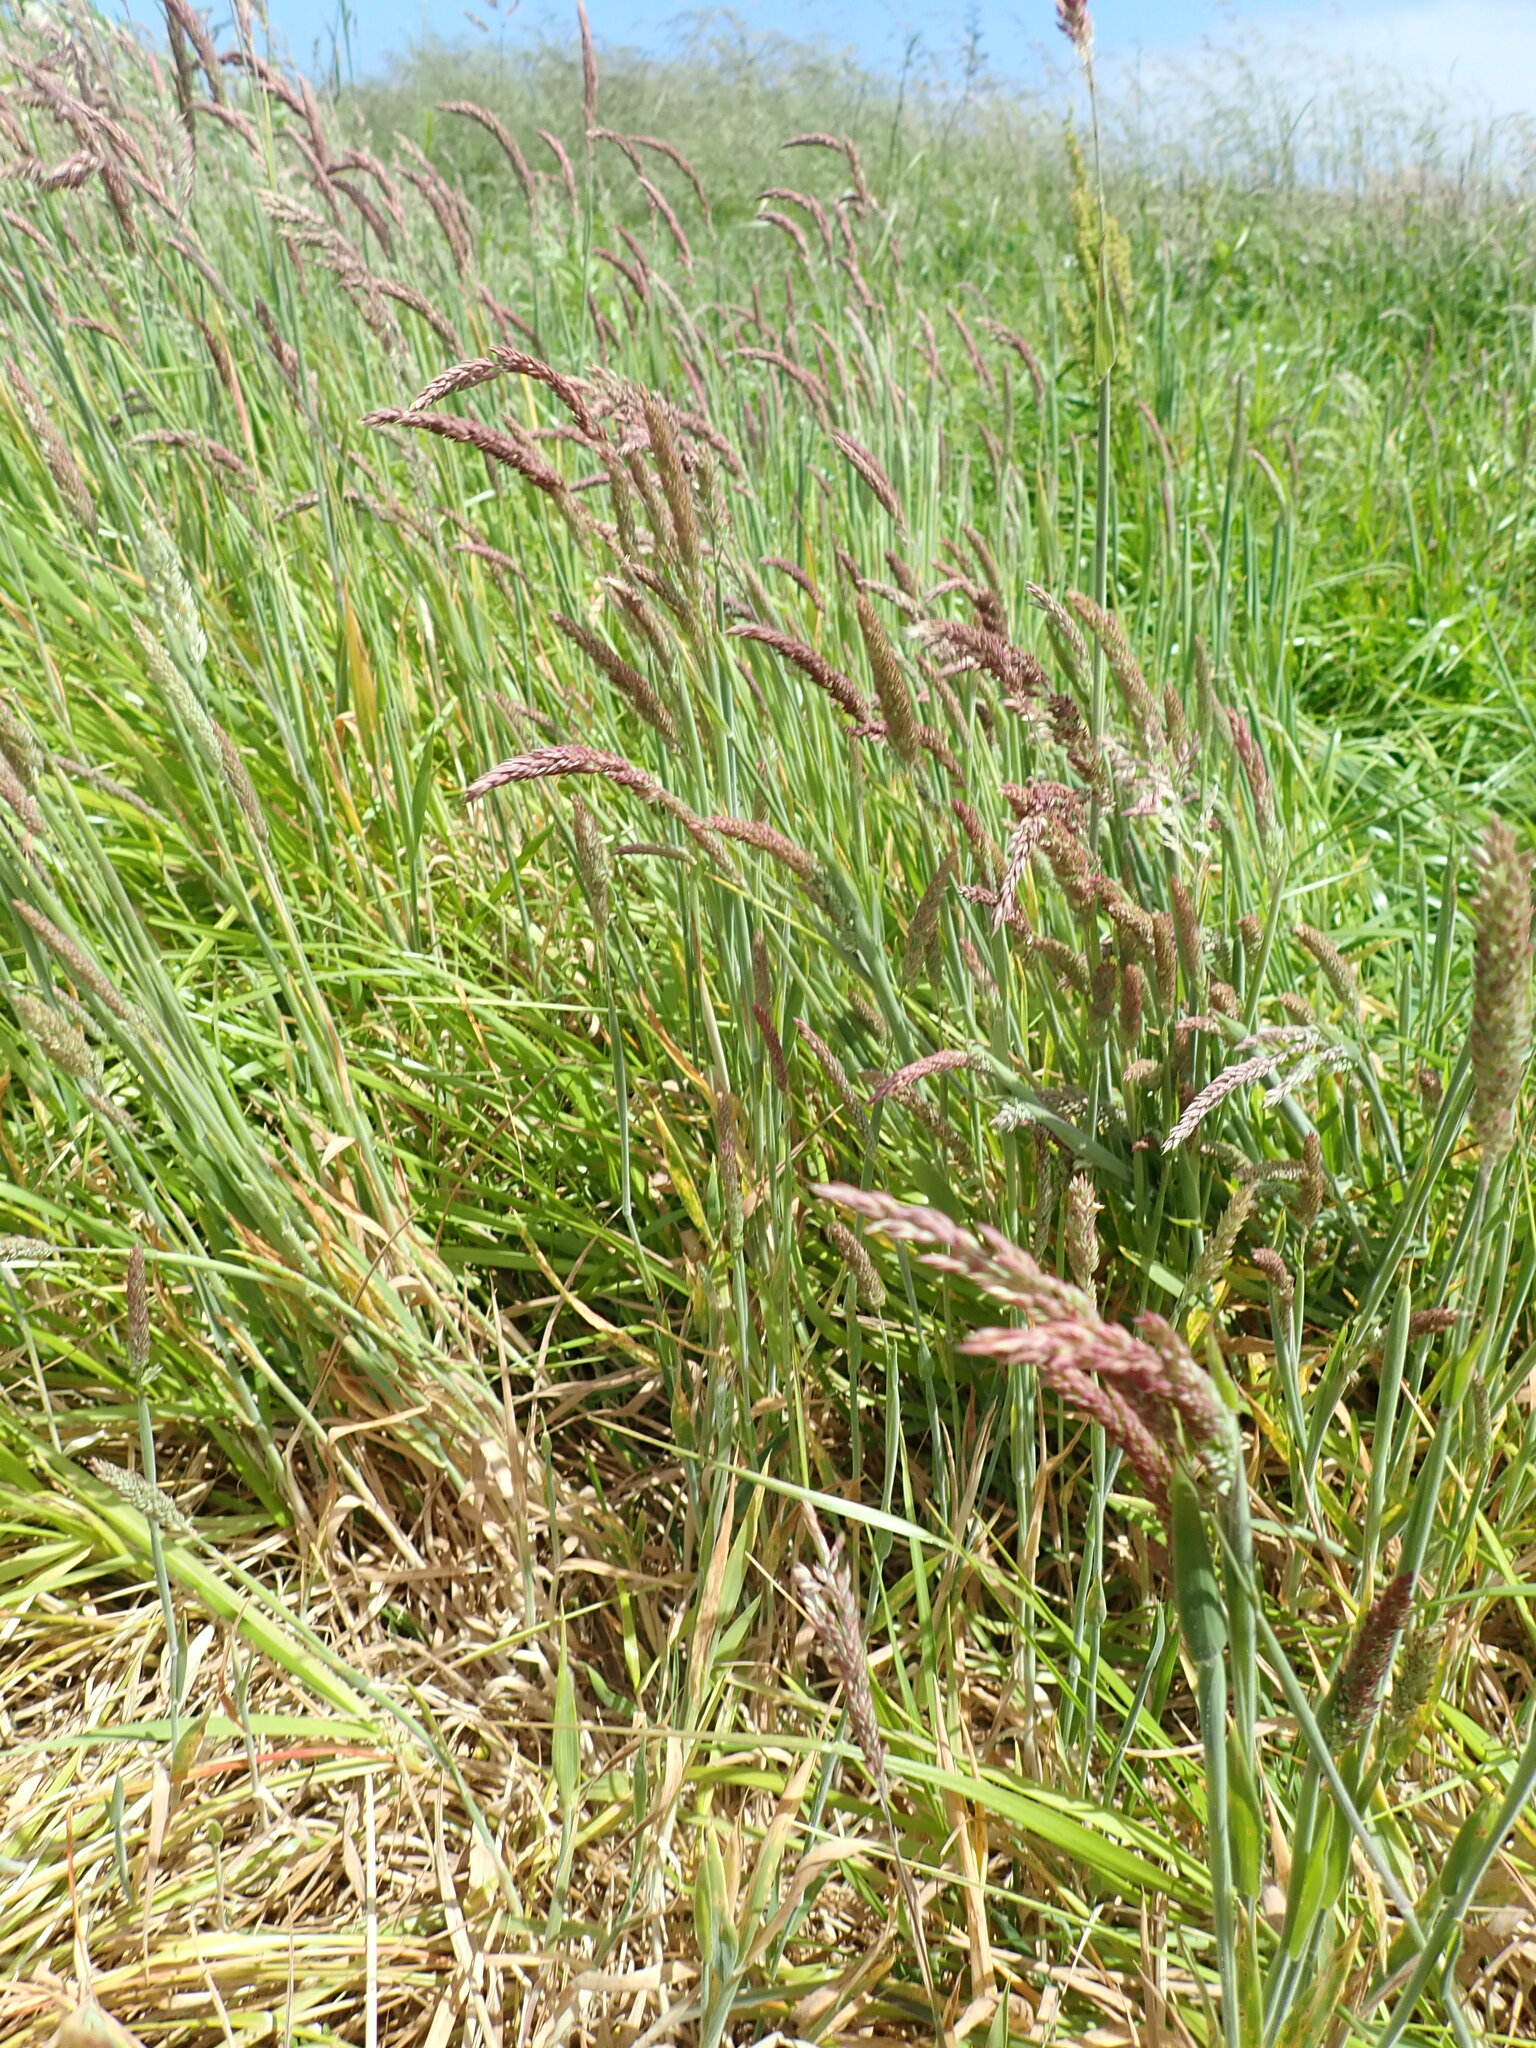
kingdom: Plantae
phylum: Tracheophyta
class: Liliopsida
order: Poales
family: Poaceae
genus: Holcus
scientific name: Holcus lanatus
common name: Yorkshire-fog
